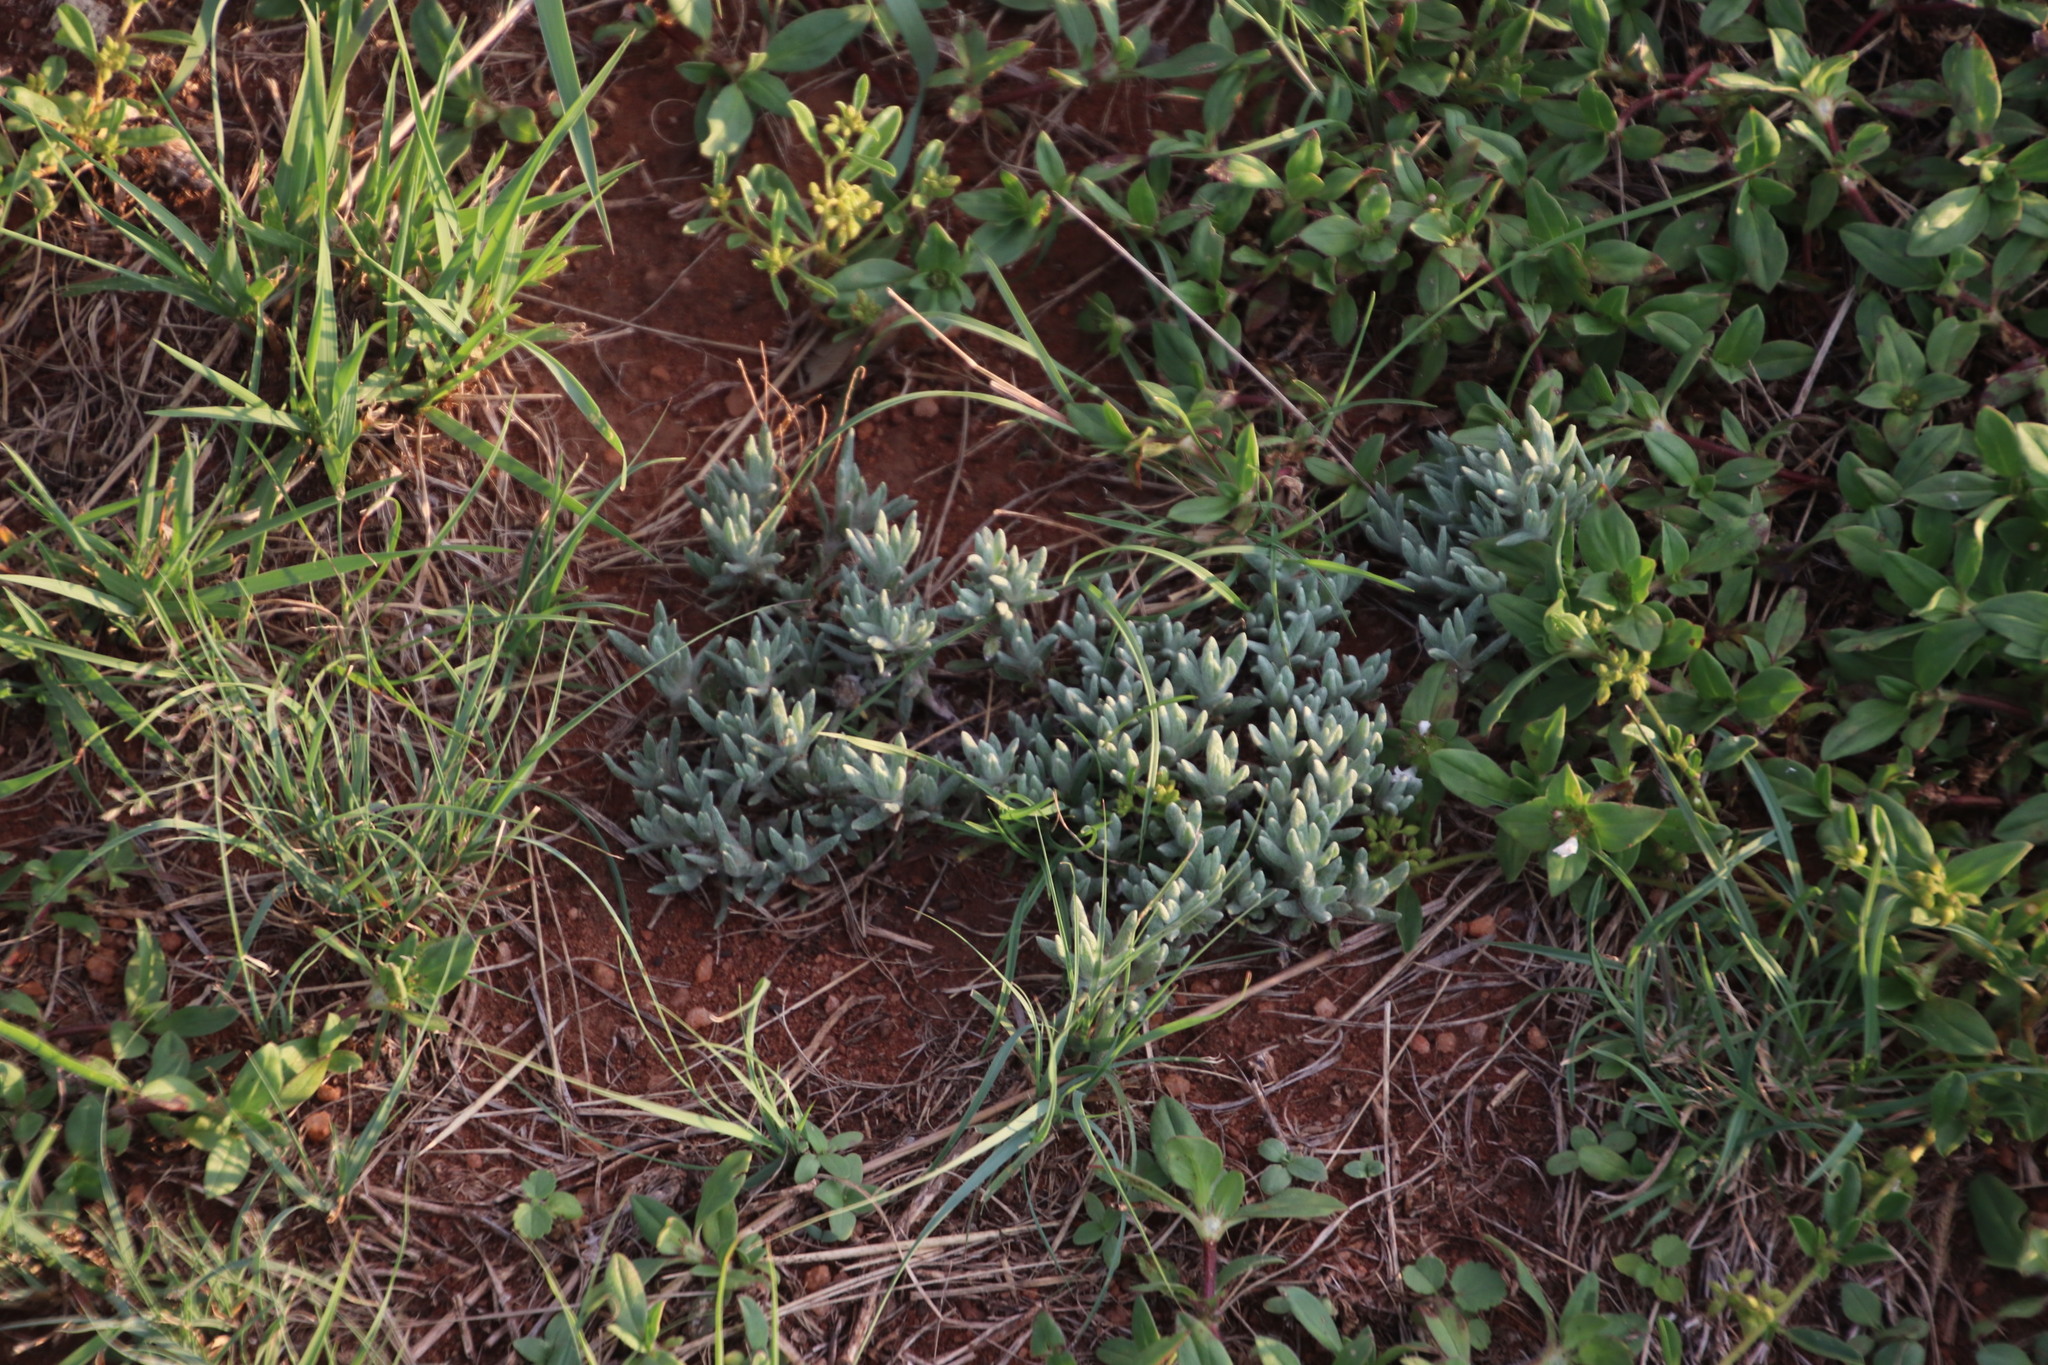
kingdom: Plantae
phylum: Tracheophyta
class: Magnoliopsida
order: Asterales
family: Asteraceae
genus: Helichrysum
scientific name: Helichrysum cerastioides
